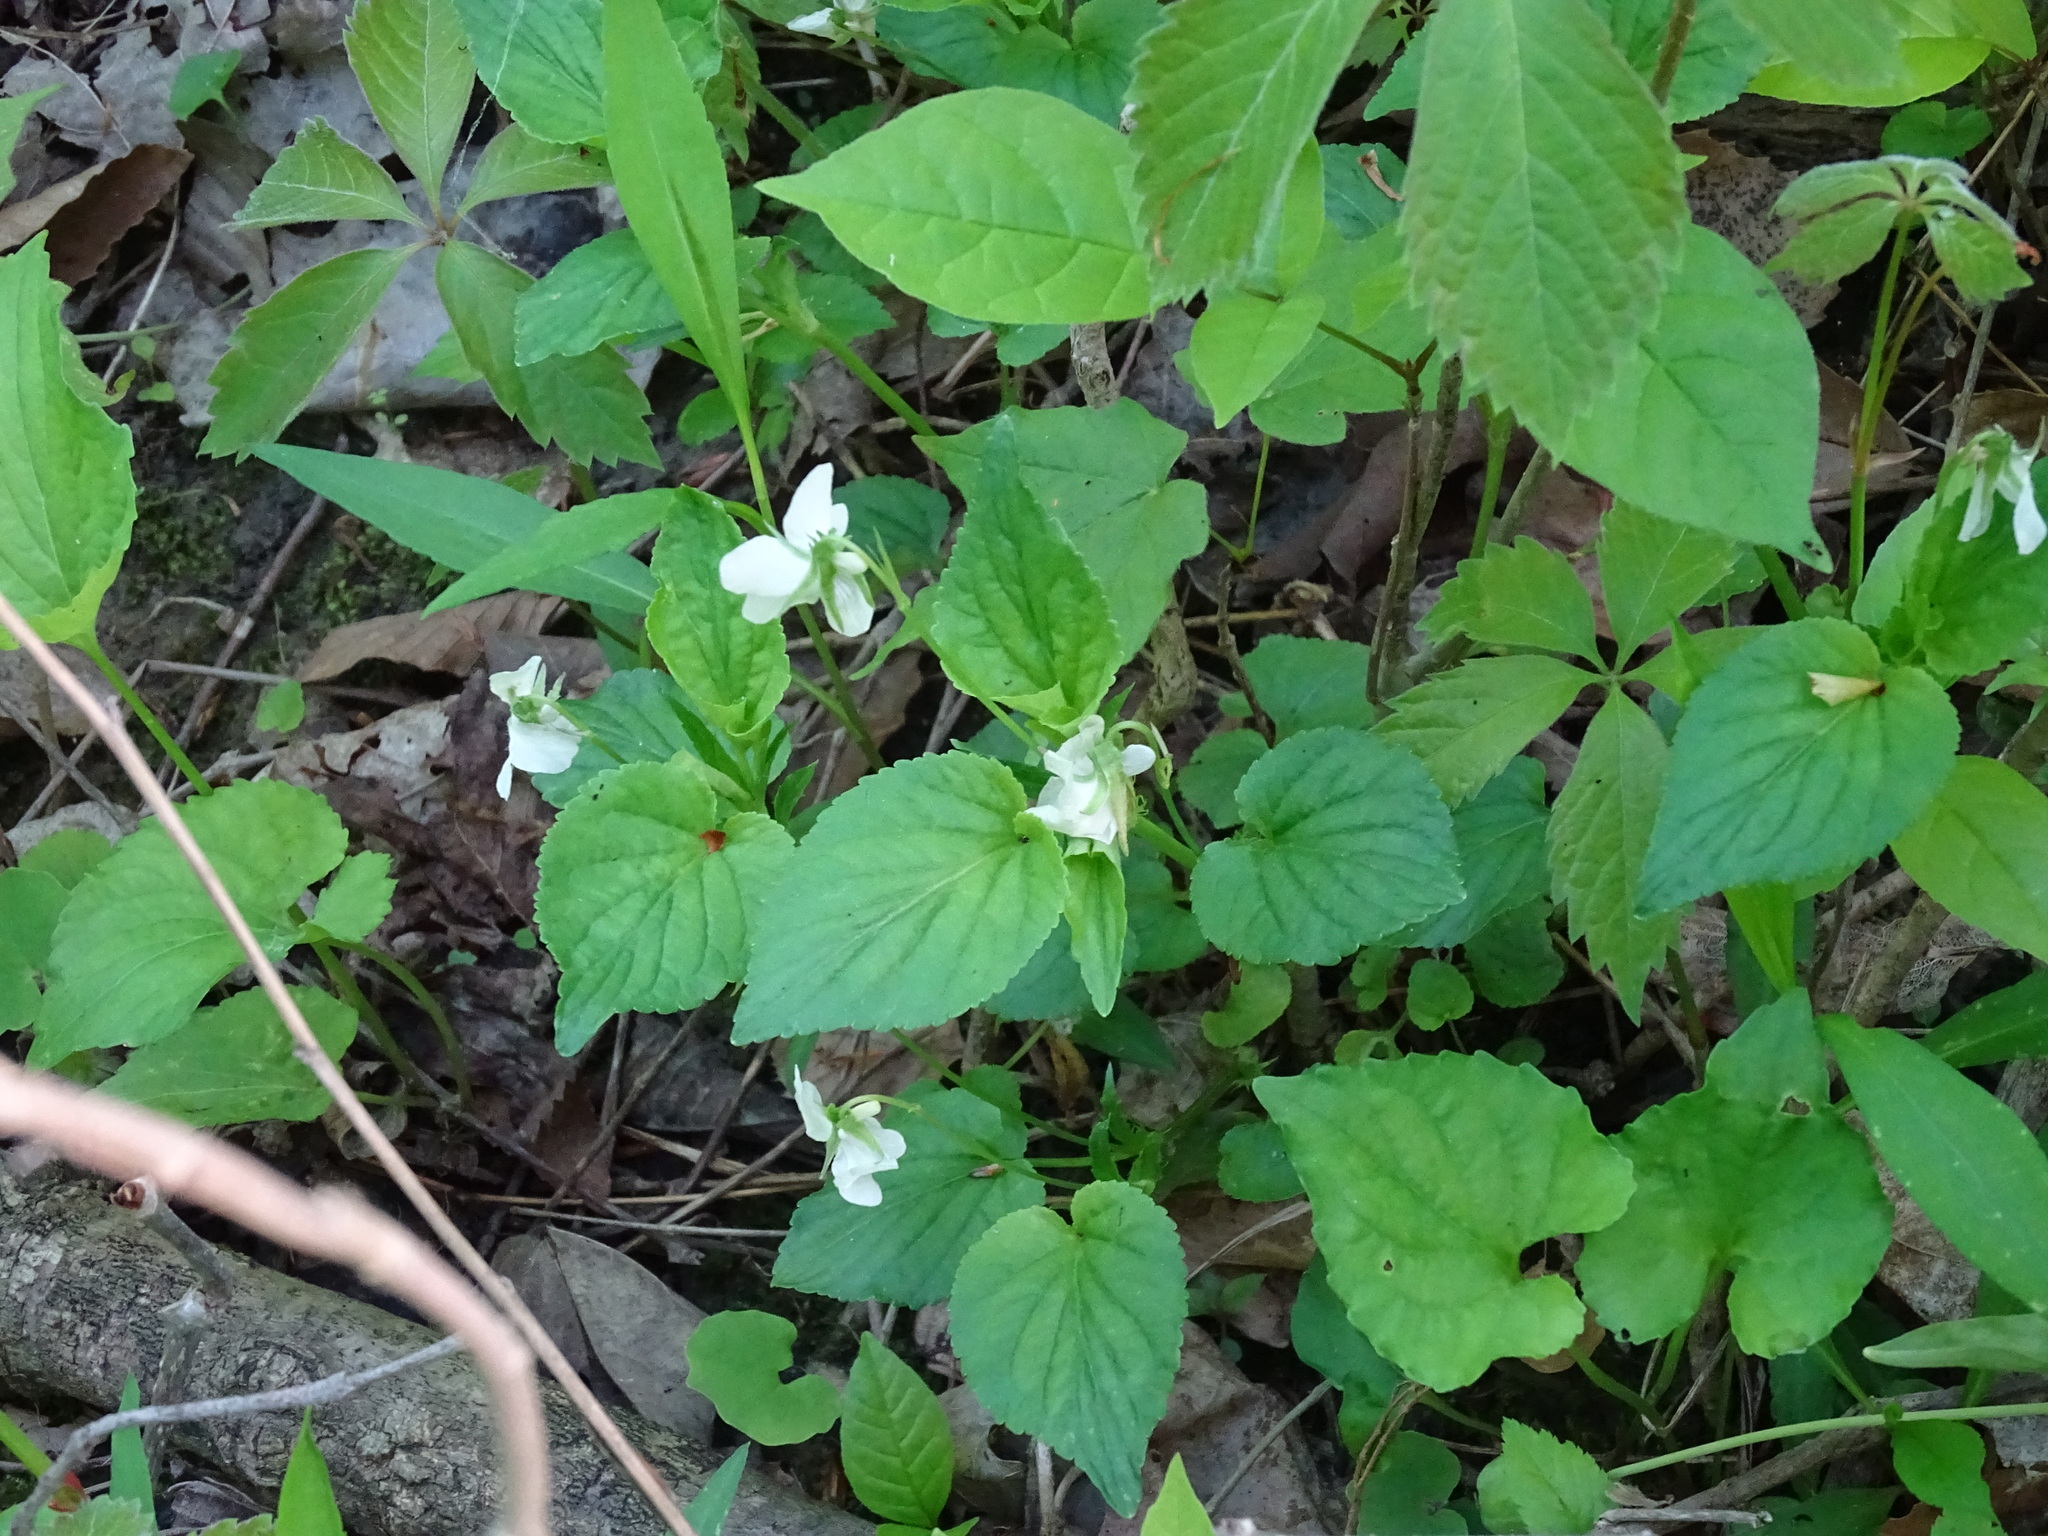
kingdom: Plantae
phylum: Tracheophyta
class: Magnoliopsida
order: Malpighiales
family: Violaceae
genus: Viola
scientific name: Viola striata
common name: Cream violet
